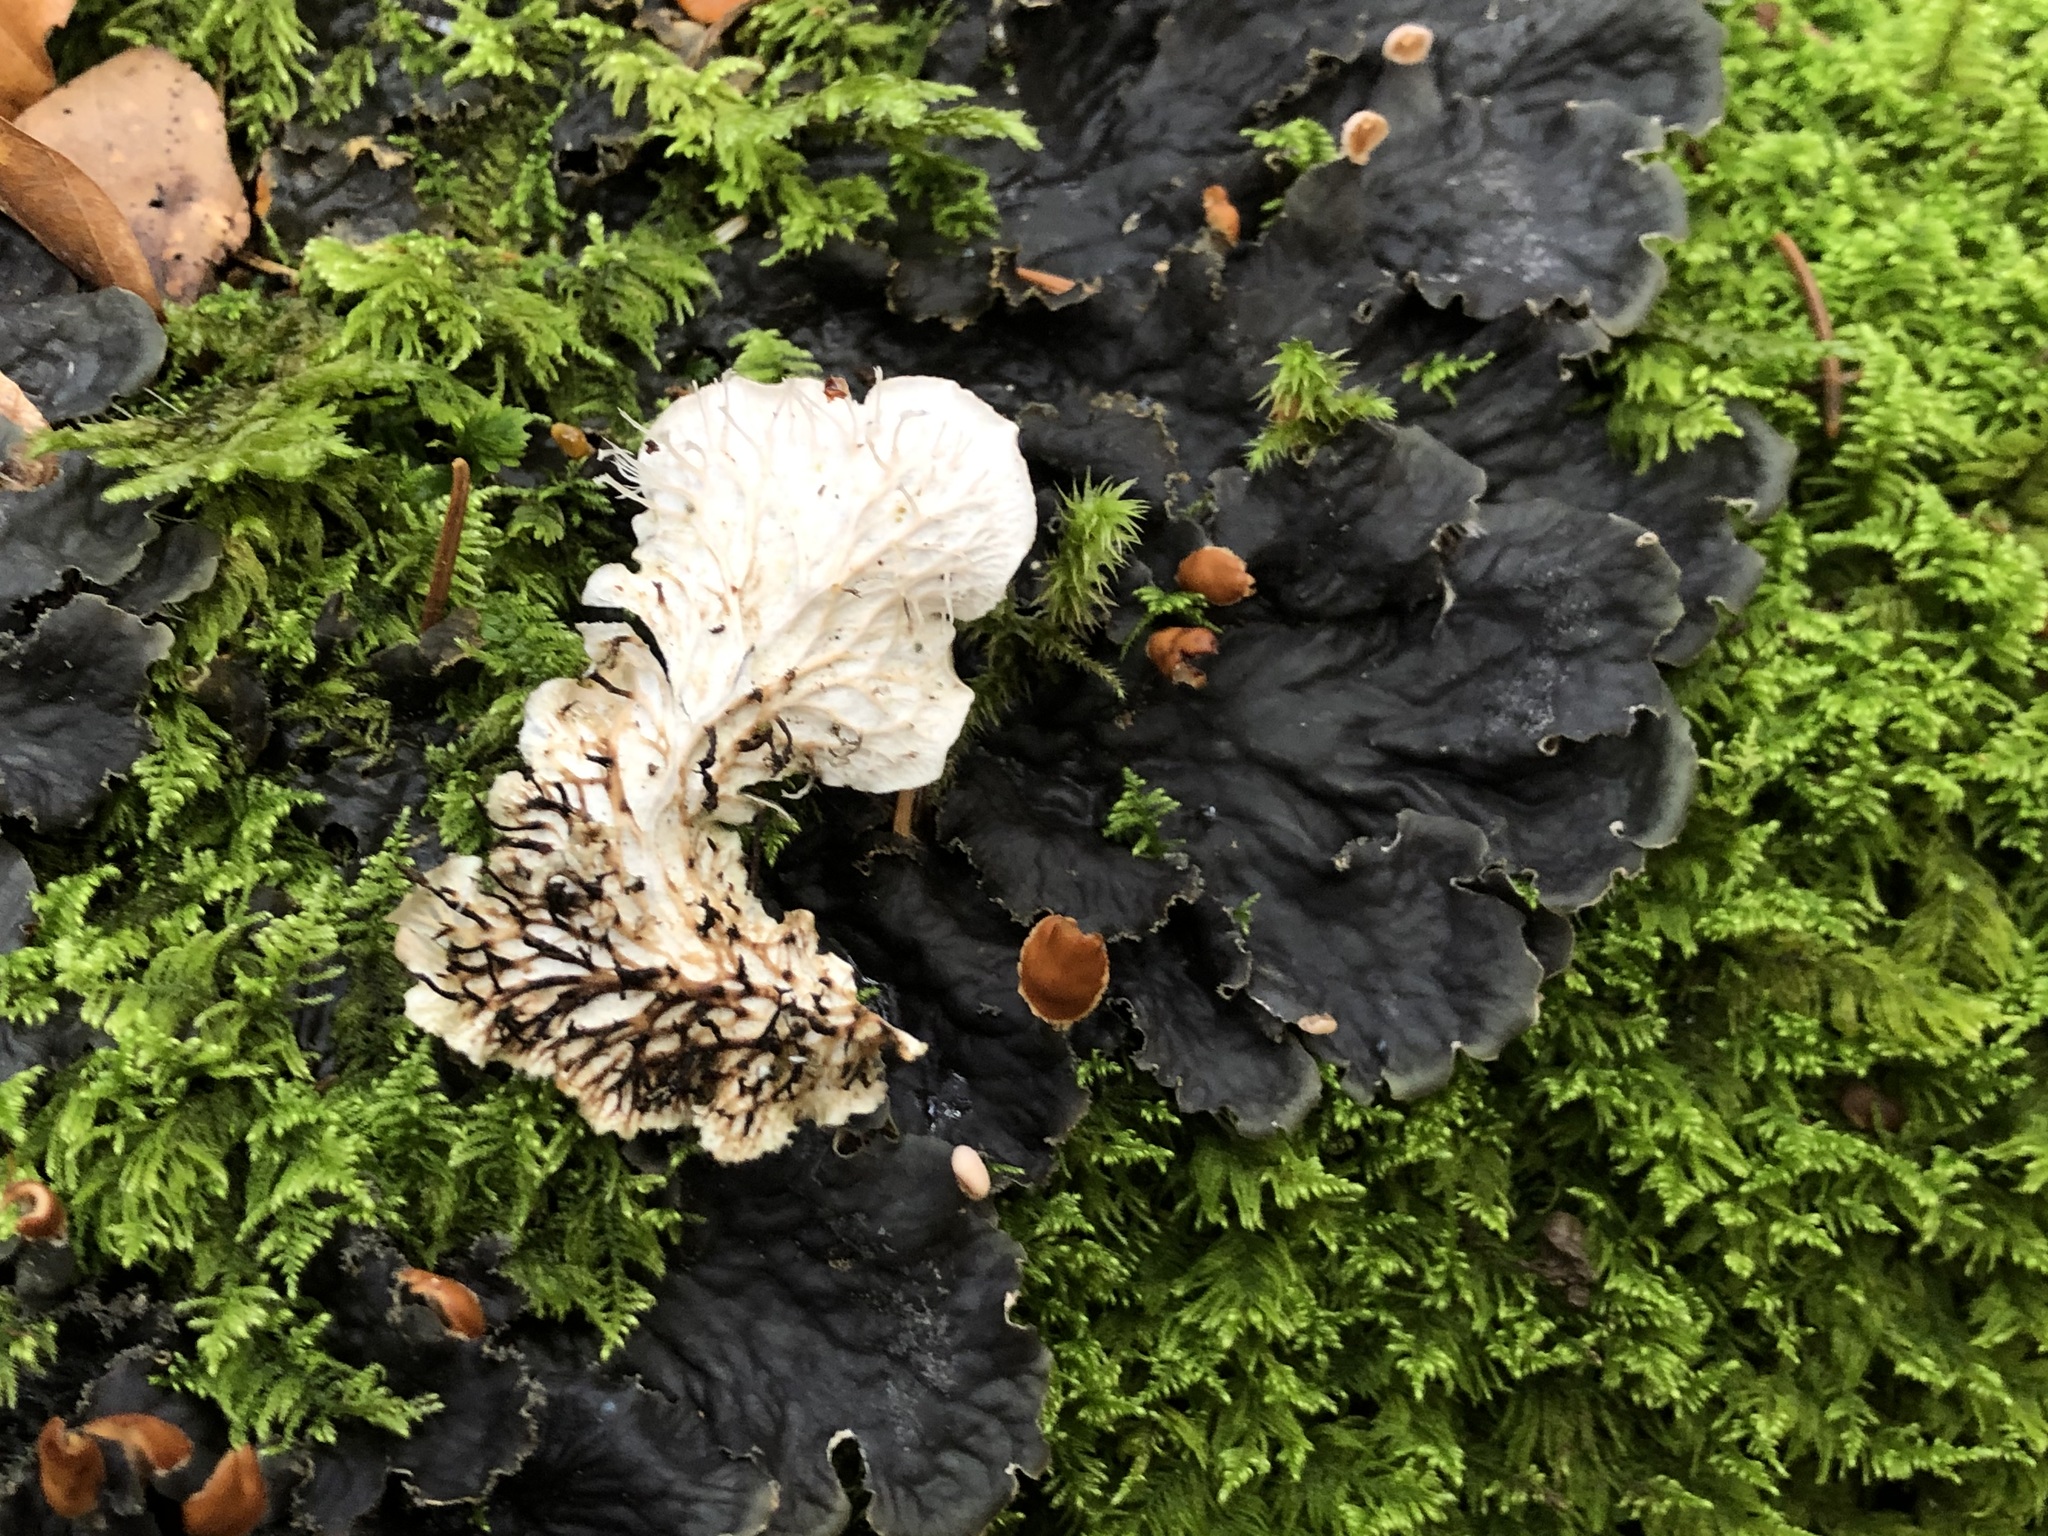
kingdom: Fungi
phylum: Ascomycota
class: Lecanoromycetes
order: Peltigerales
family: Peltigeraceae
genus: Peltigera
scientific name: Peltigera praetextata
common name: Scaly dog-lichen
